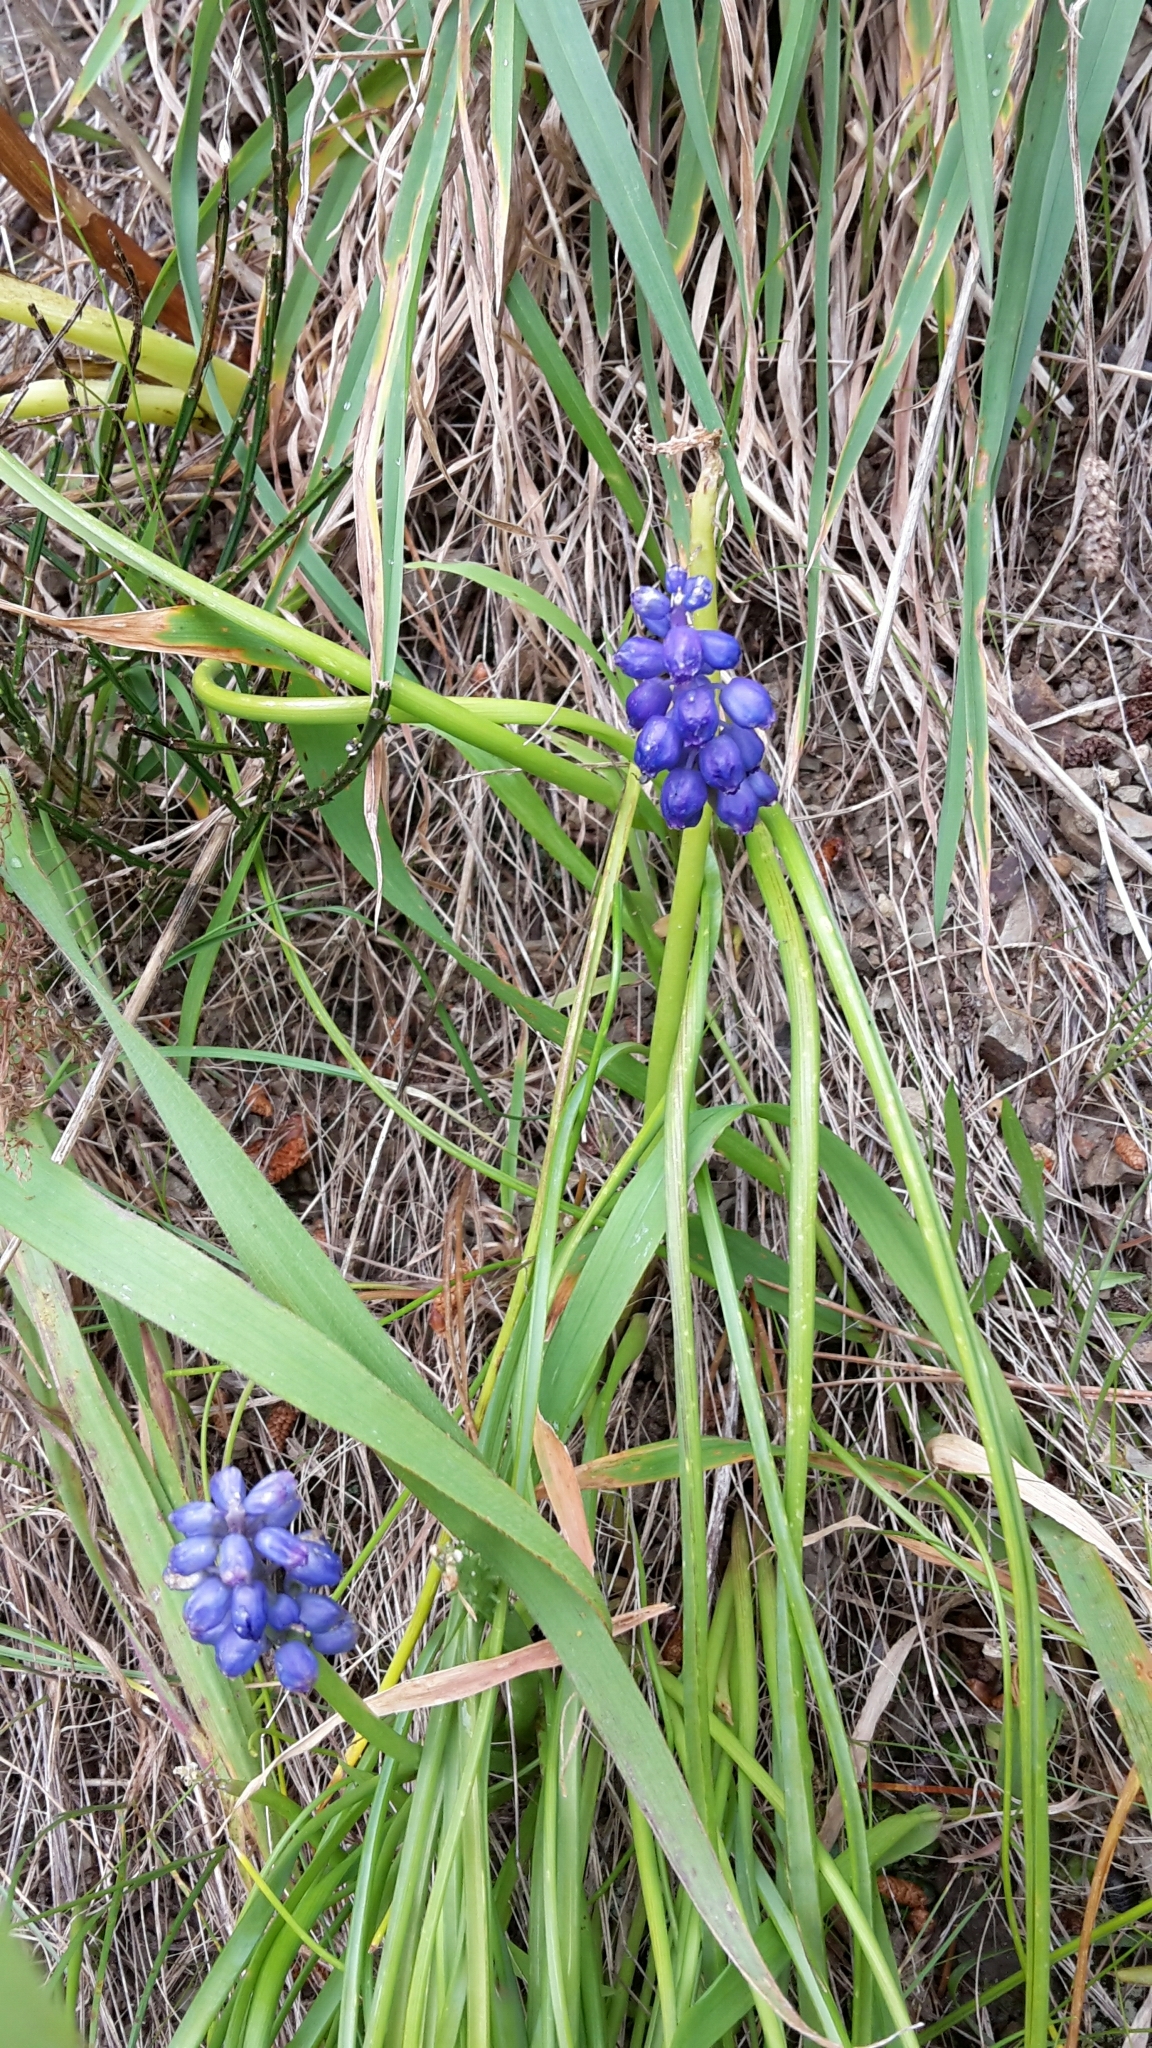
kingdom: Plantae
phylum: Tracheophyta
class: Liliopsida
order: Asparagales
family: Asparagaceae
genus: Muscari
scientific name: Muscari armeniacum
